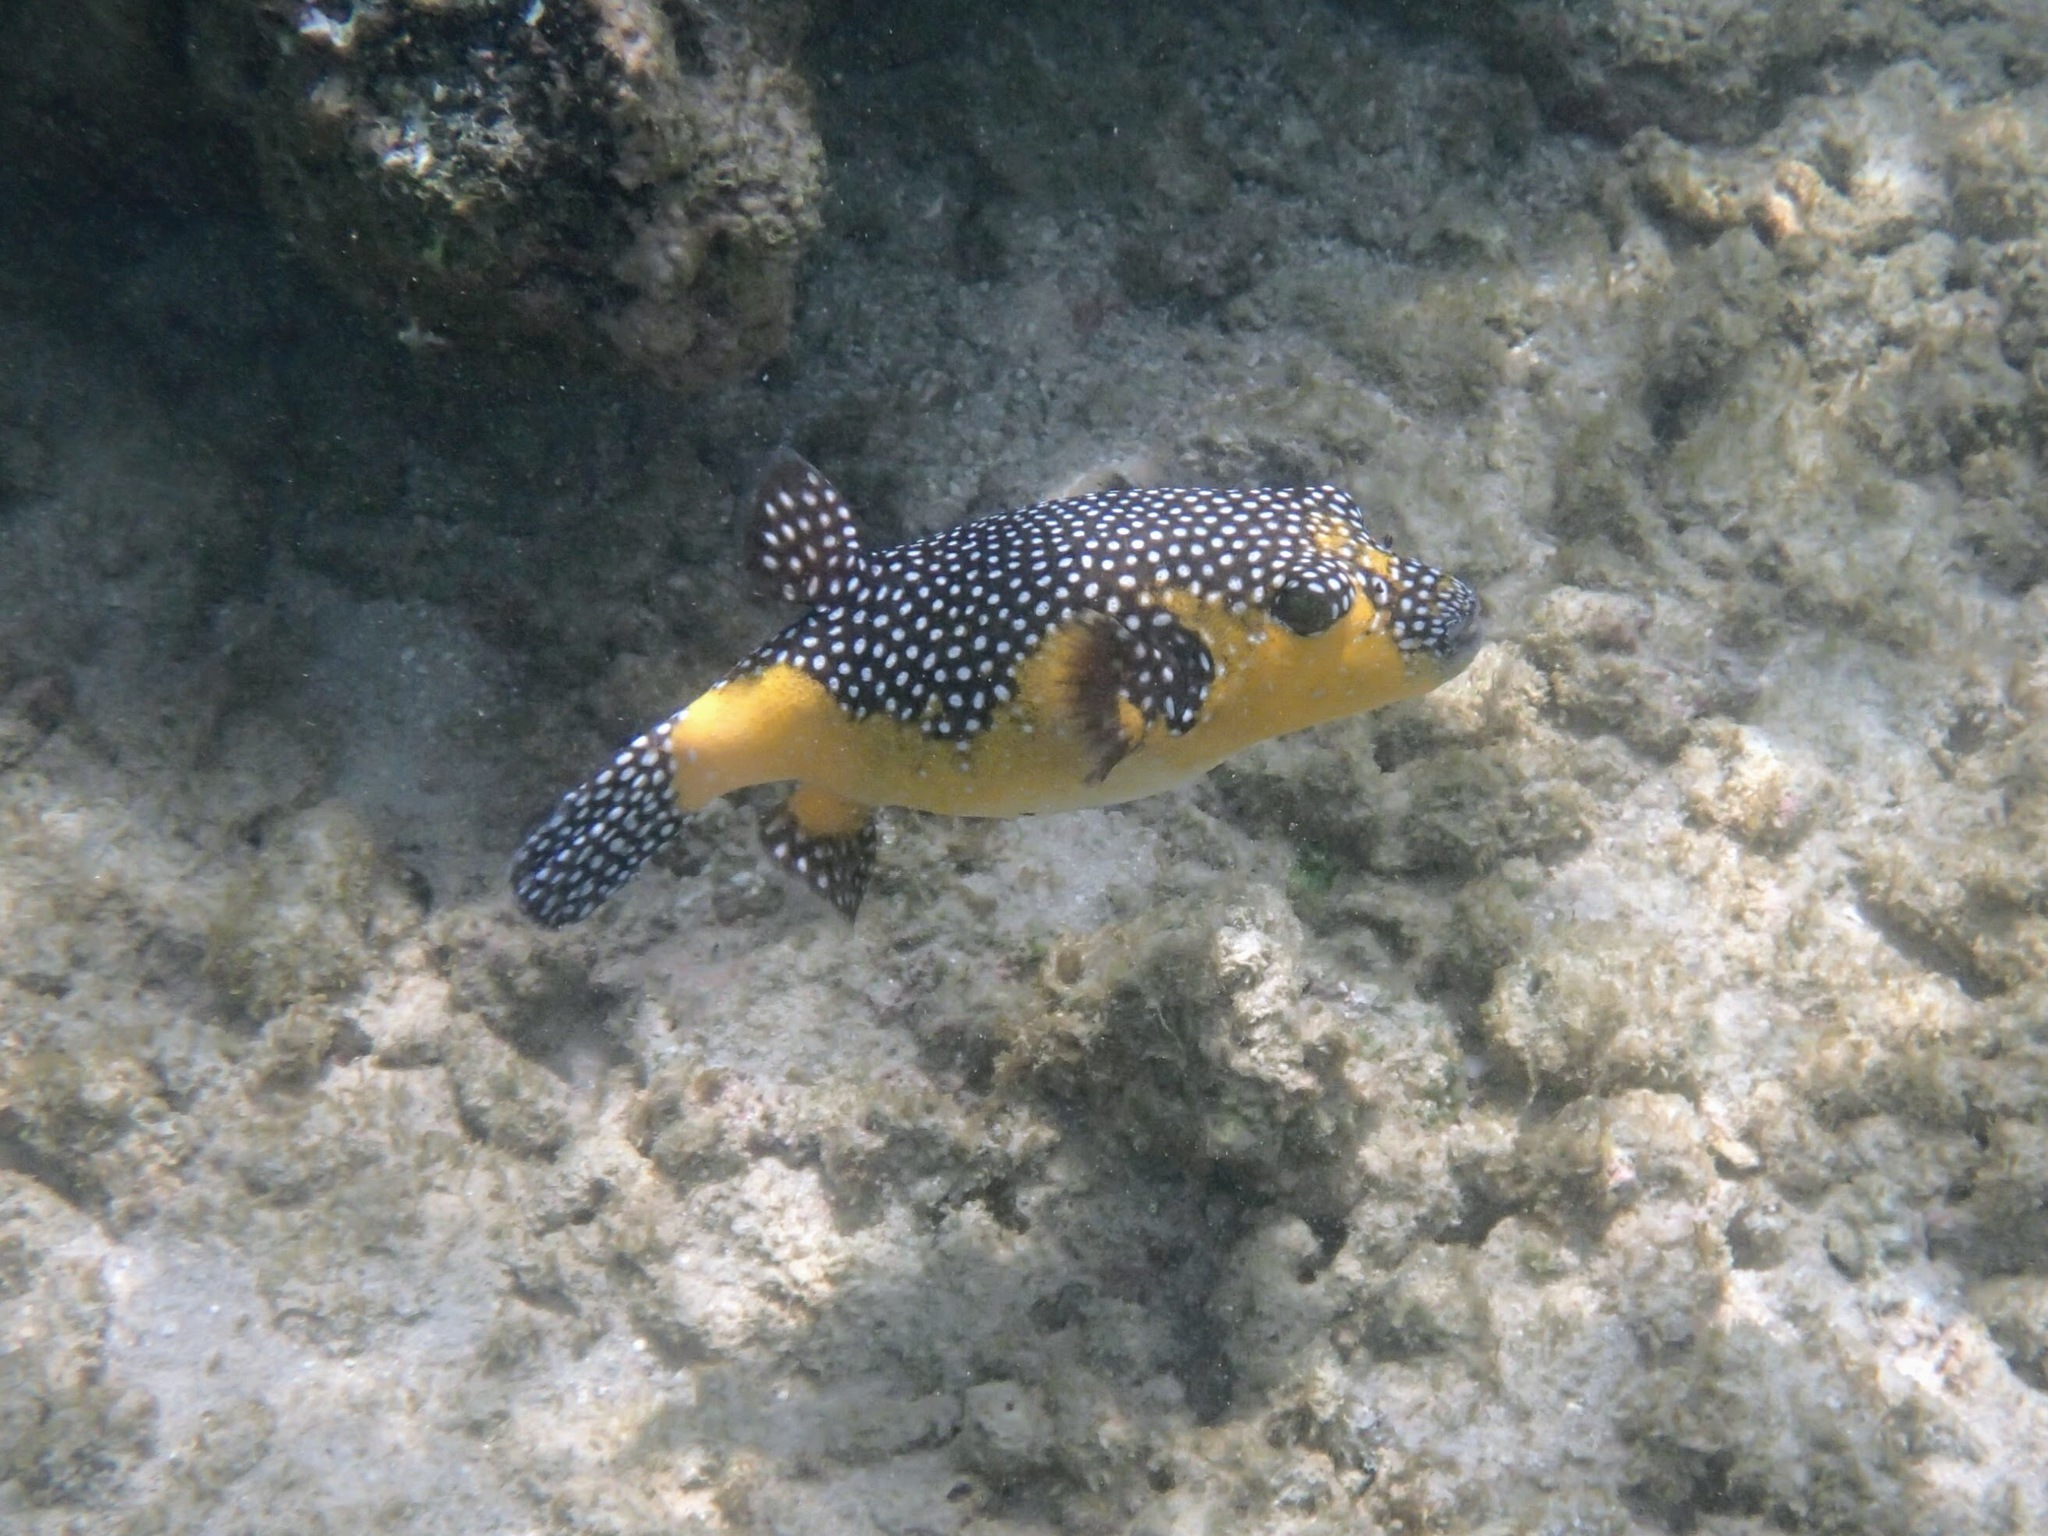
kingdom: Animalia
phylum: Chordata
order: Tetraodontiformes
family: Tetraodontidae
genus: Arothron
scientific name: Arothron meleagris
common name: Guinea-fowl pufferfish
